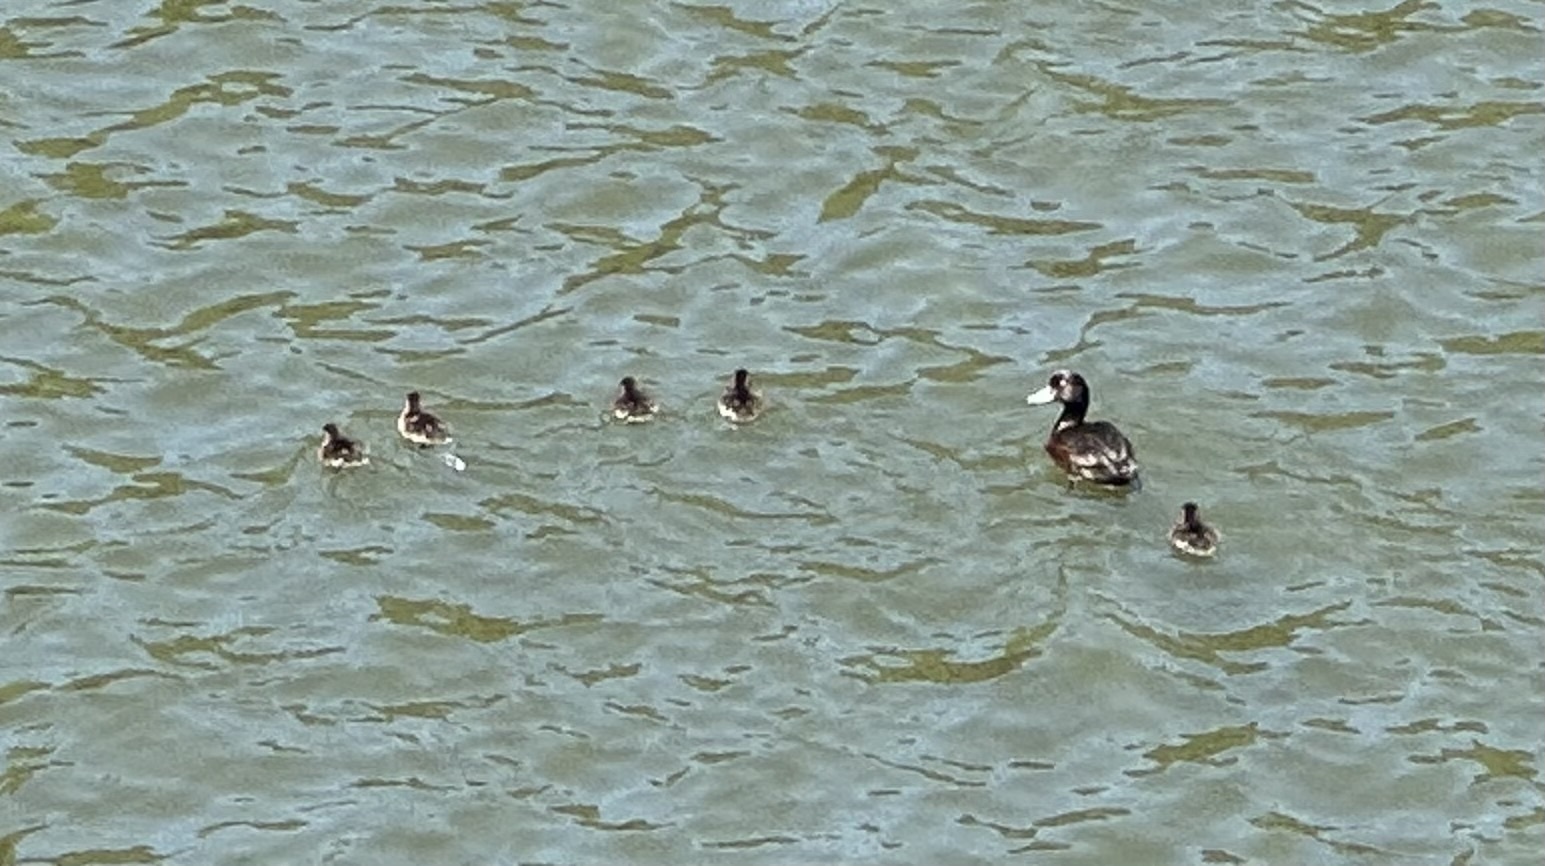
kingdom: Animalia
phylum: Chordata
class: Aves
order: Anseriformes
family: Anatidae
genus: Aythya
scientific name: Aythya novaeseelandiae
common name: New zealand scaup
